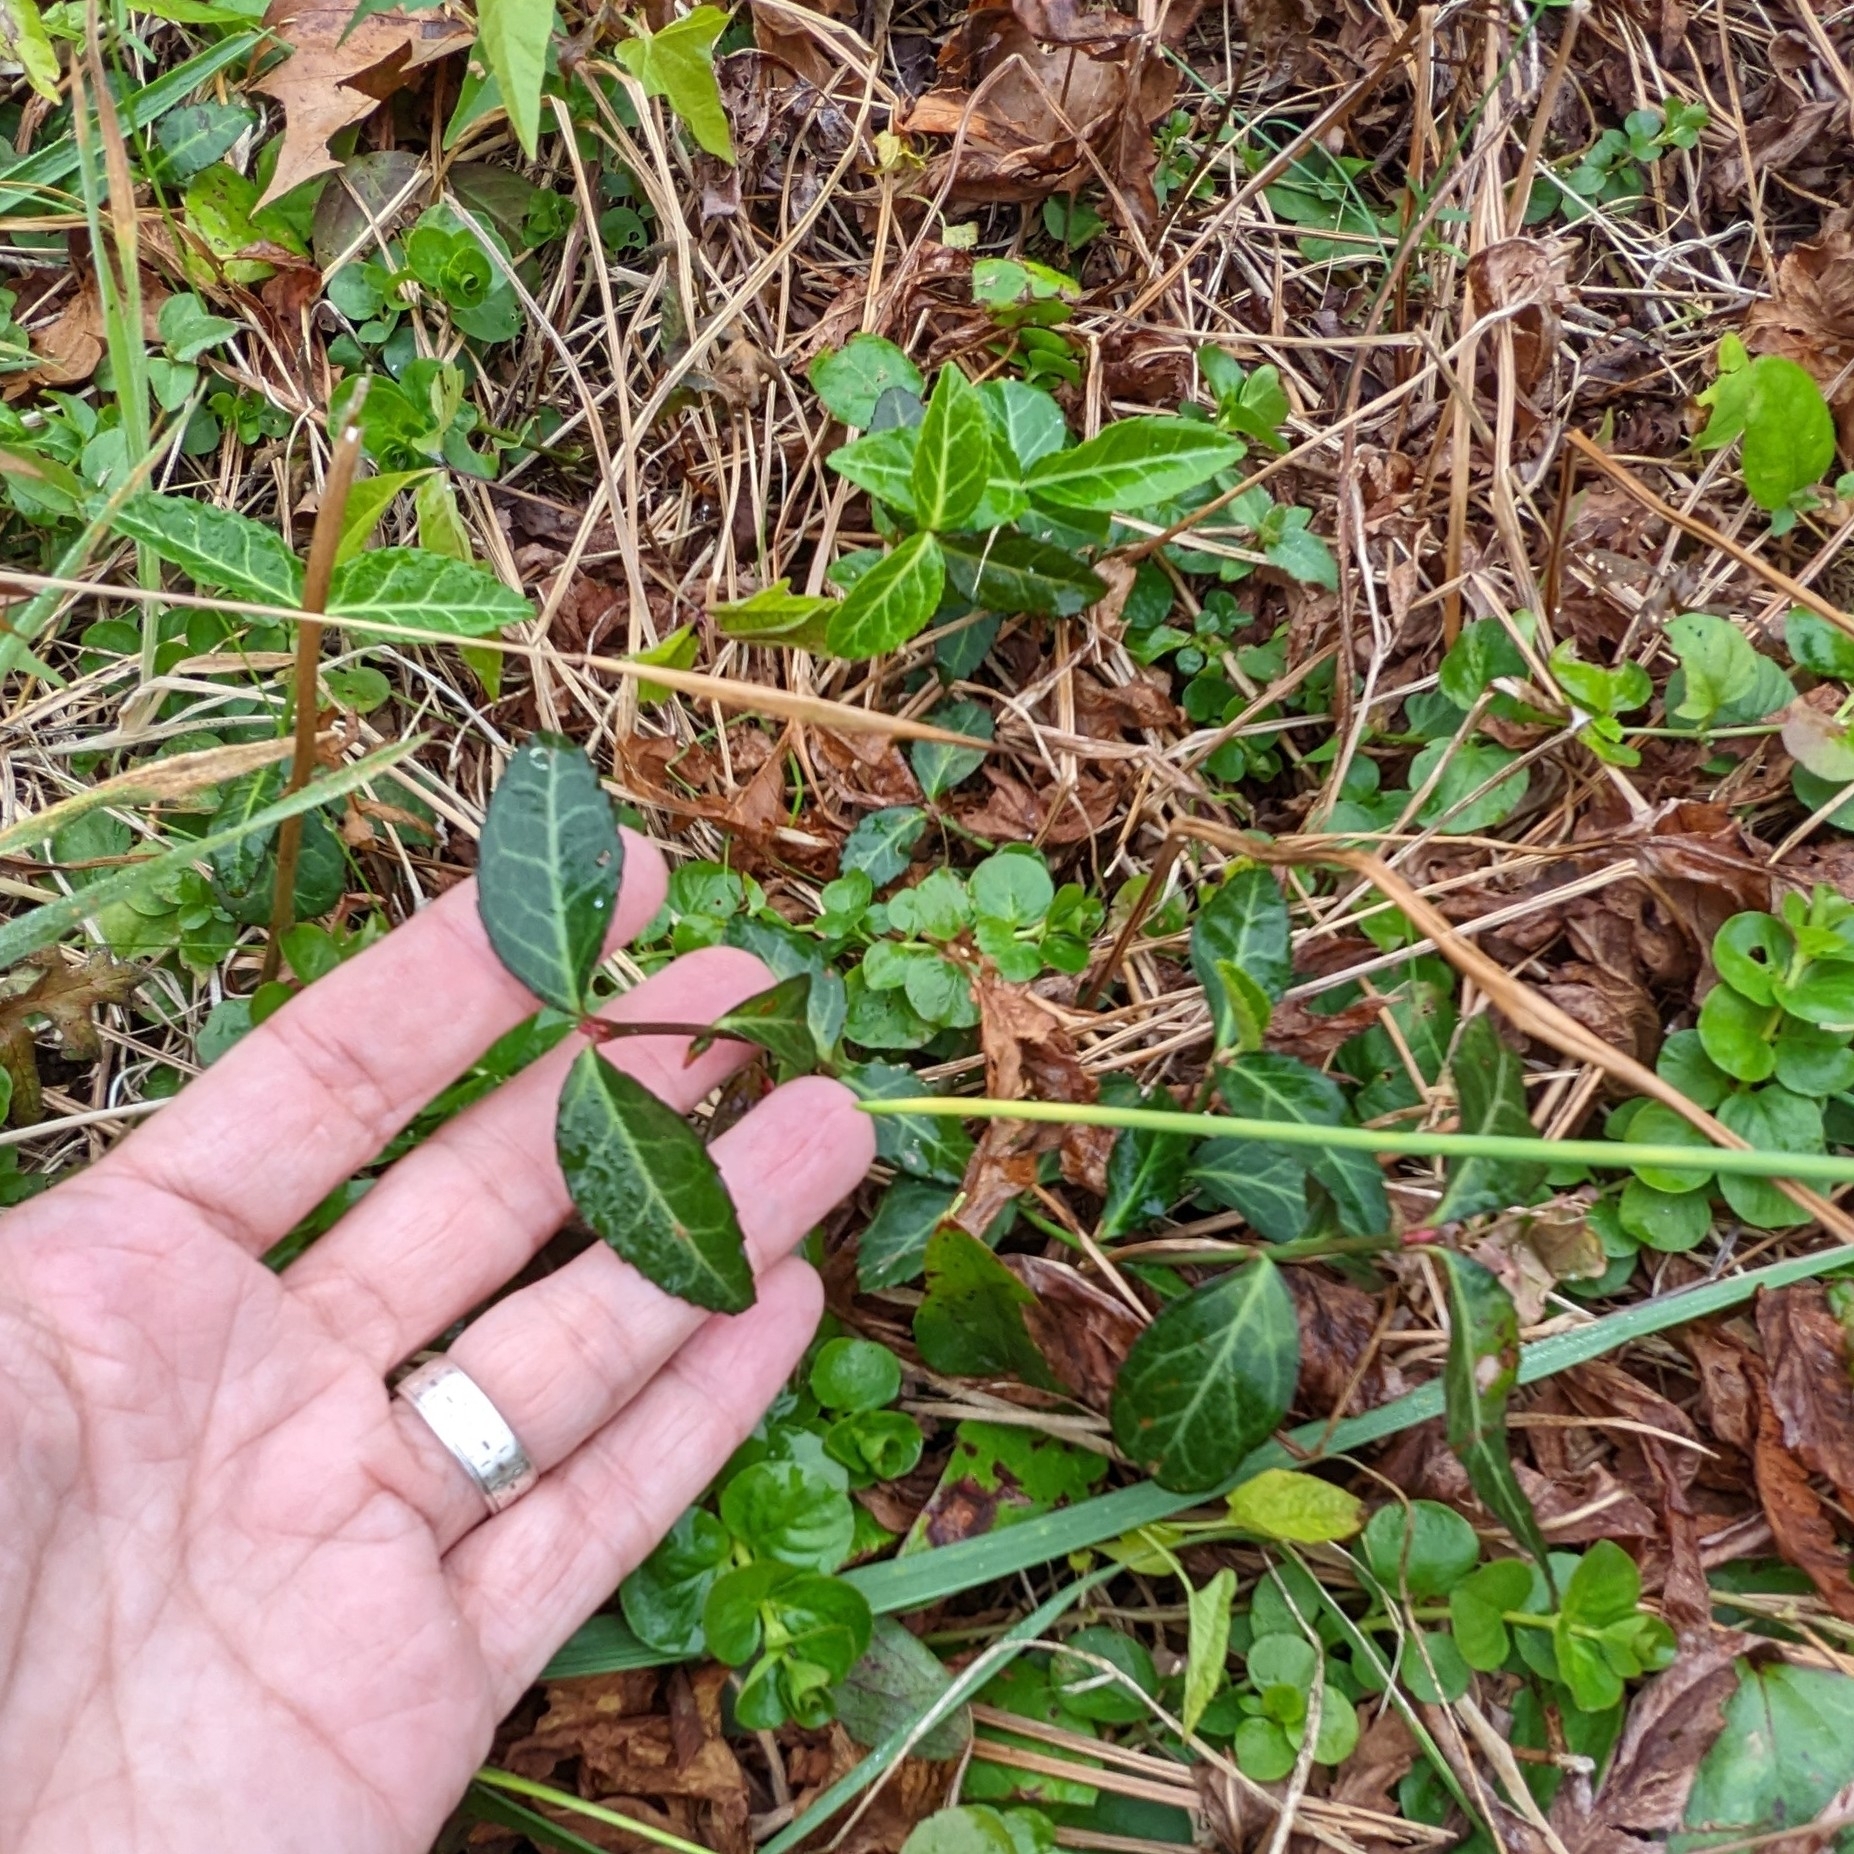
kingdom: Plantae
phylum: Tracheophyta
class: Magnoliopsida
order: Celastrales
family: Celastraceae
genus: Euonymus
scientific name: Euonymus fortunei
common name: Climbing euonymus
